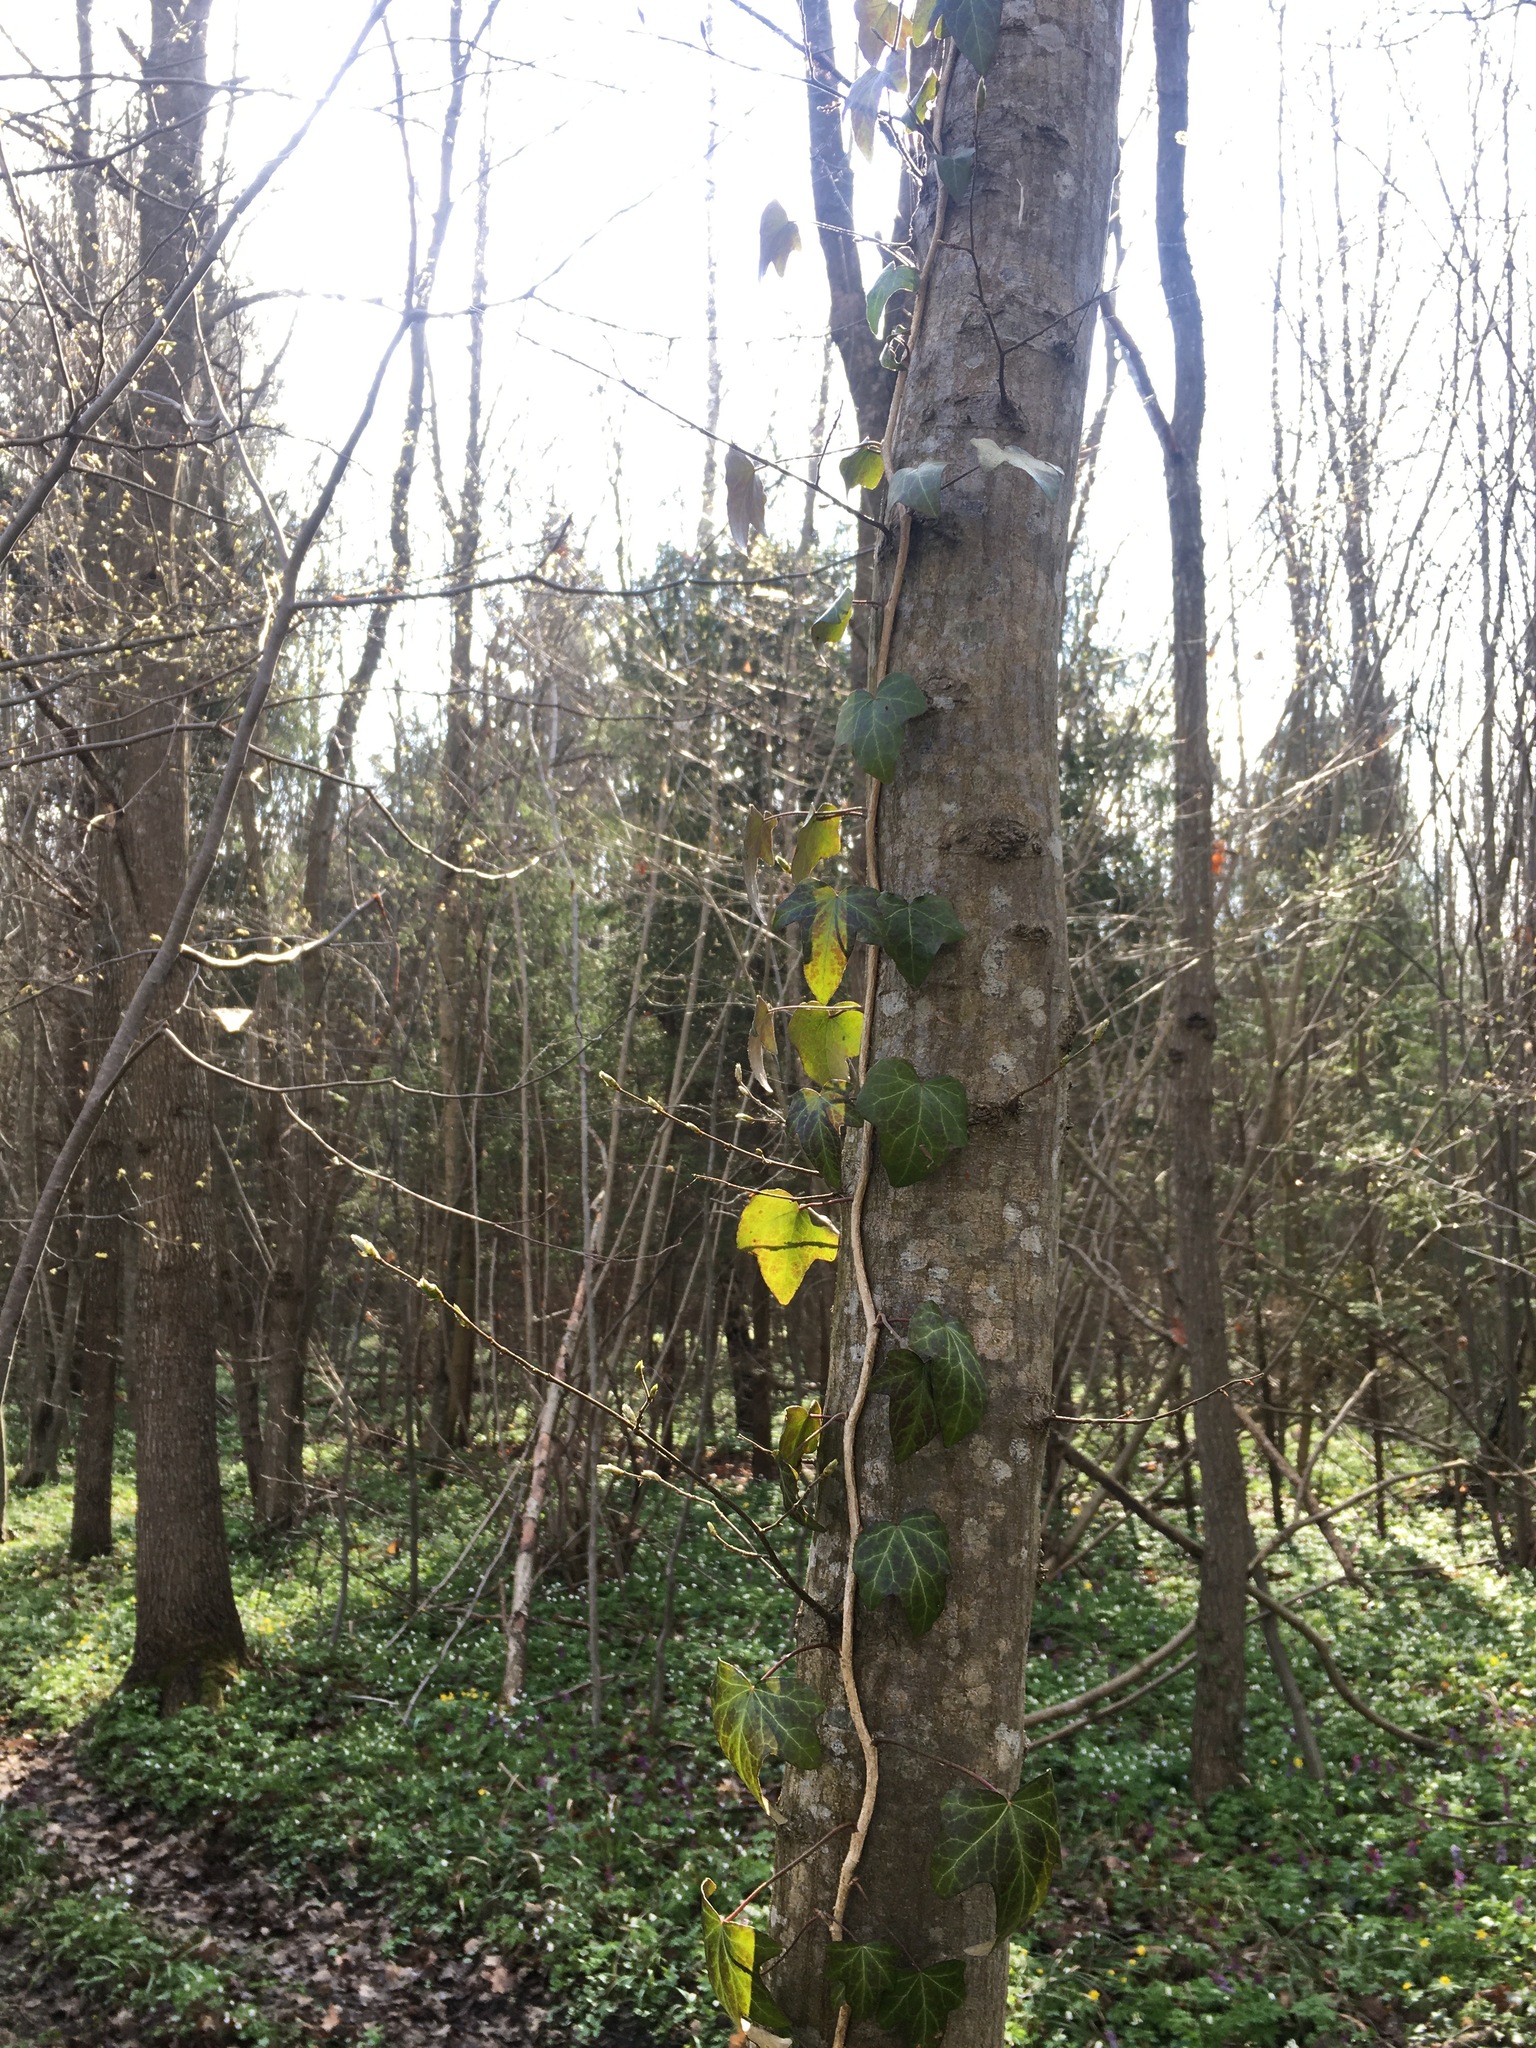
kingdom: Plantae
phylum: Tracheophyta
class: Magnoliopsida
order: Apiales
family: Araliaceae
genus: Hedera
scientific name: Hedera helix
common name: Ivy
